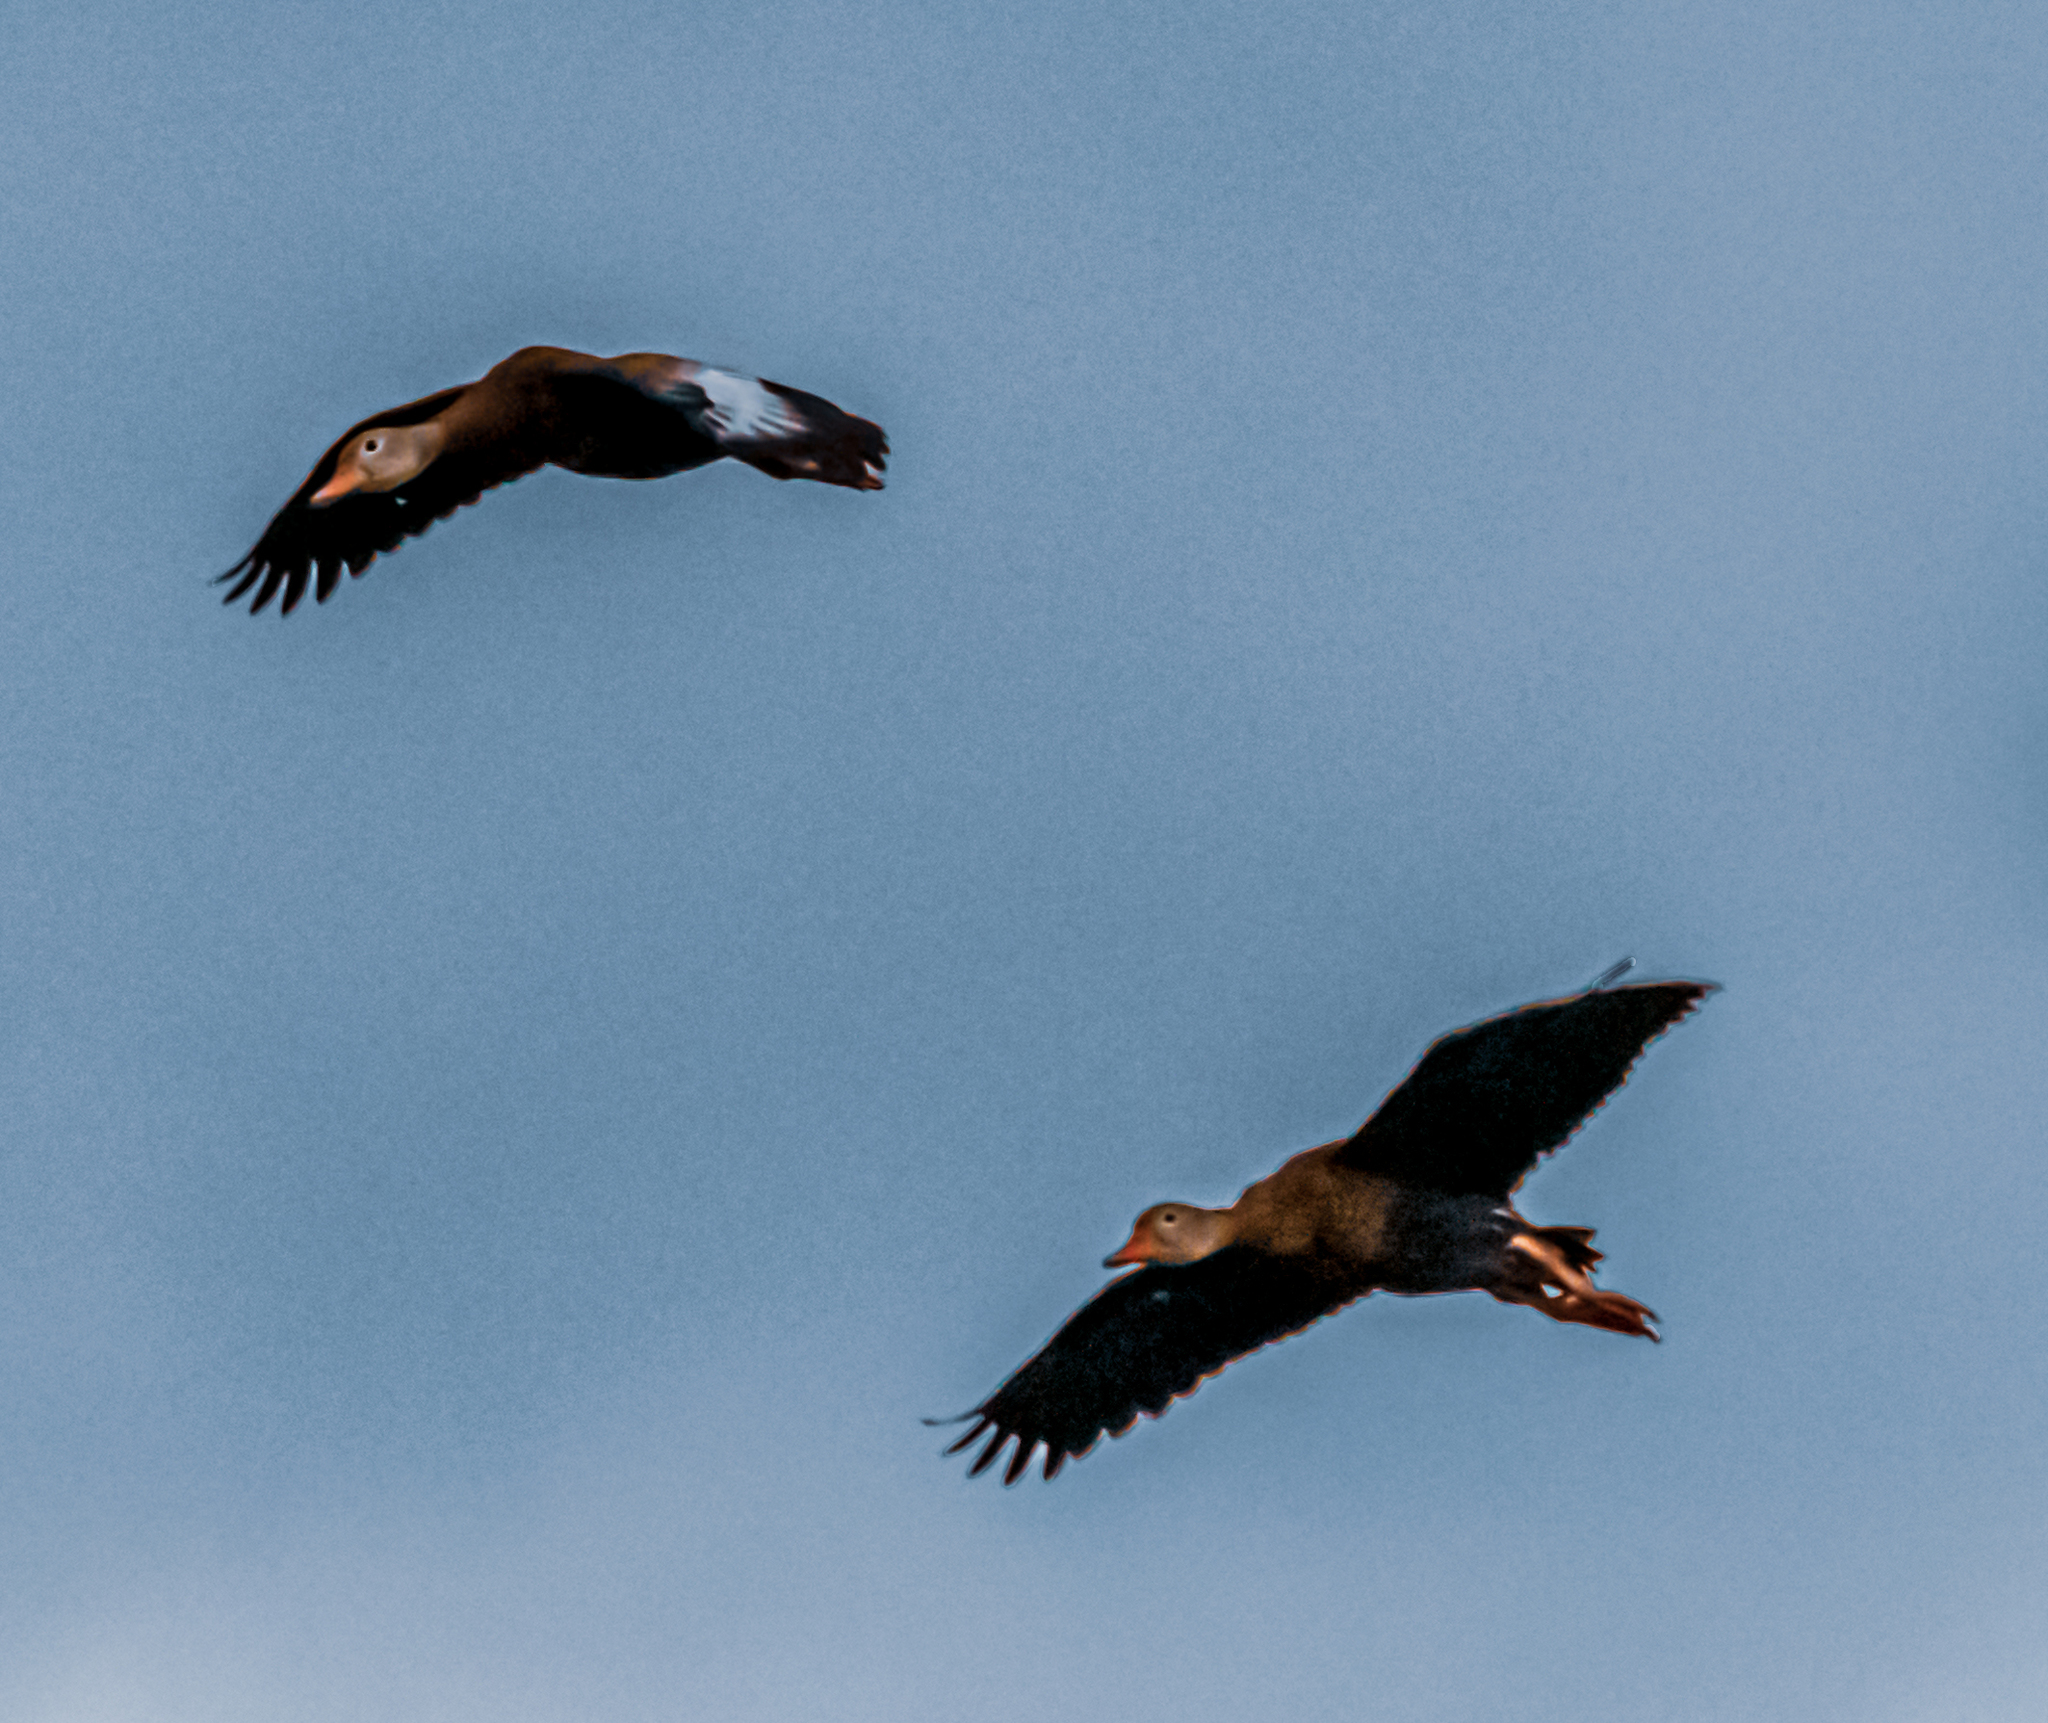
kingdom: Animalia
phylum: Chordata
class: Aves
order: Anseriformes
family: Anatidae
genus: Dendrocygna
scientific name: Dendrocygna autumnalis
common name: Black-bellied whistling duck
